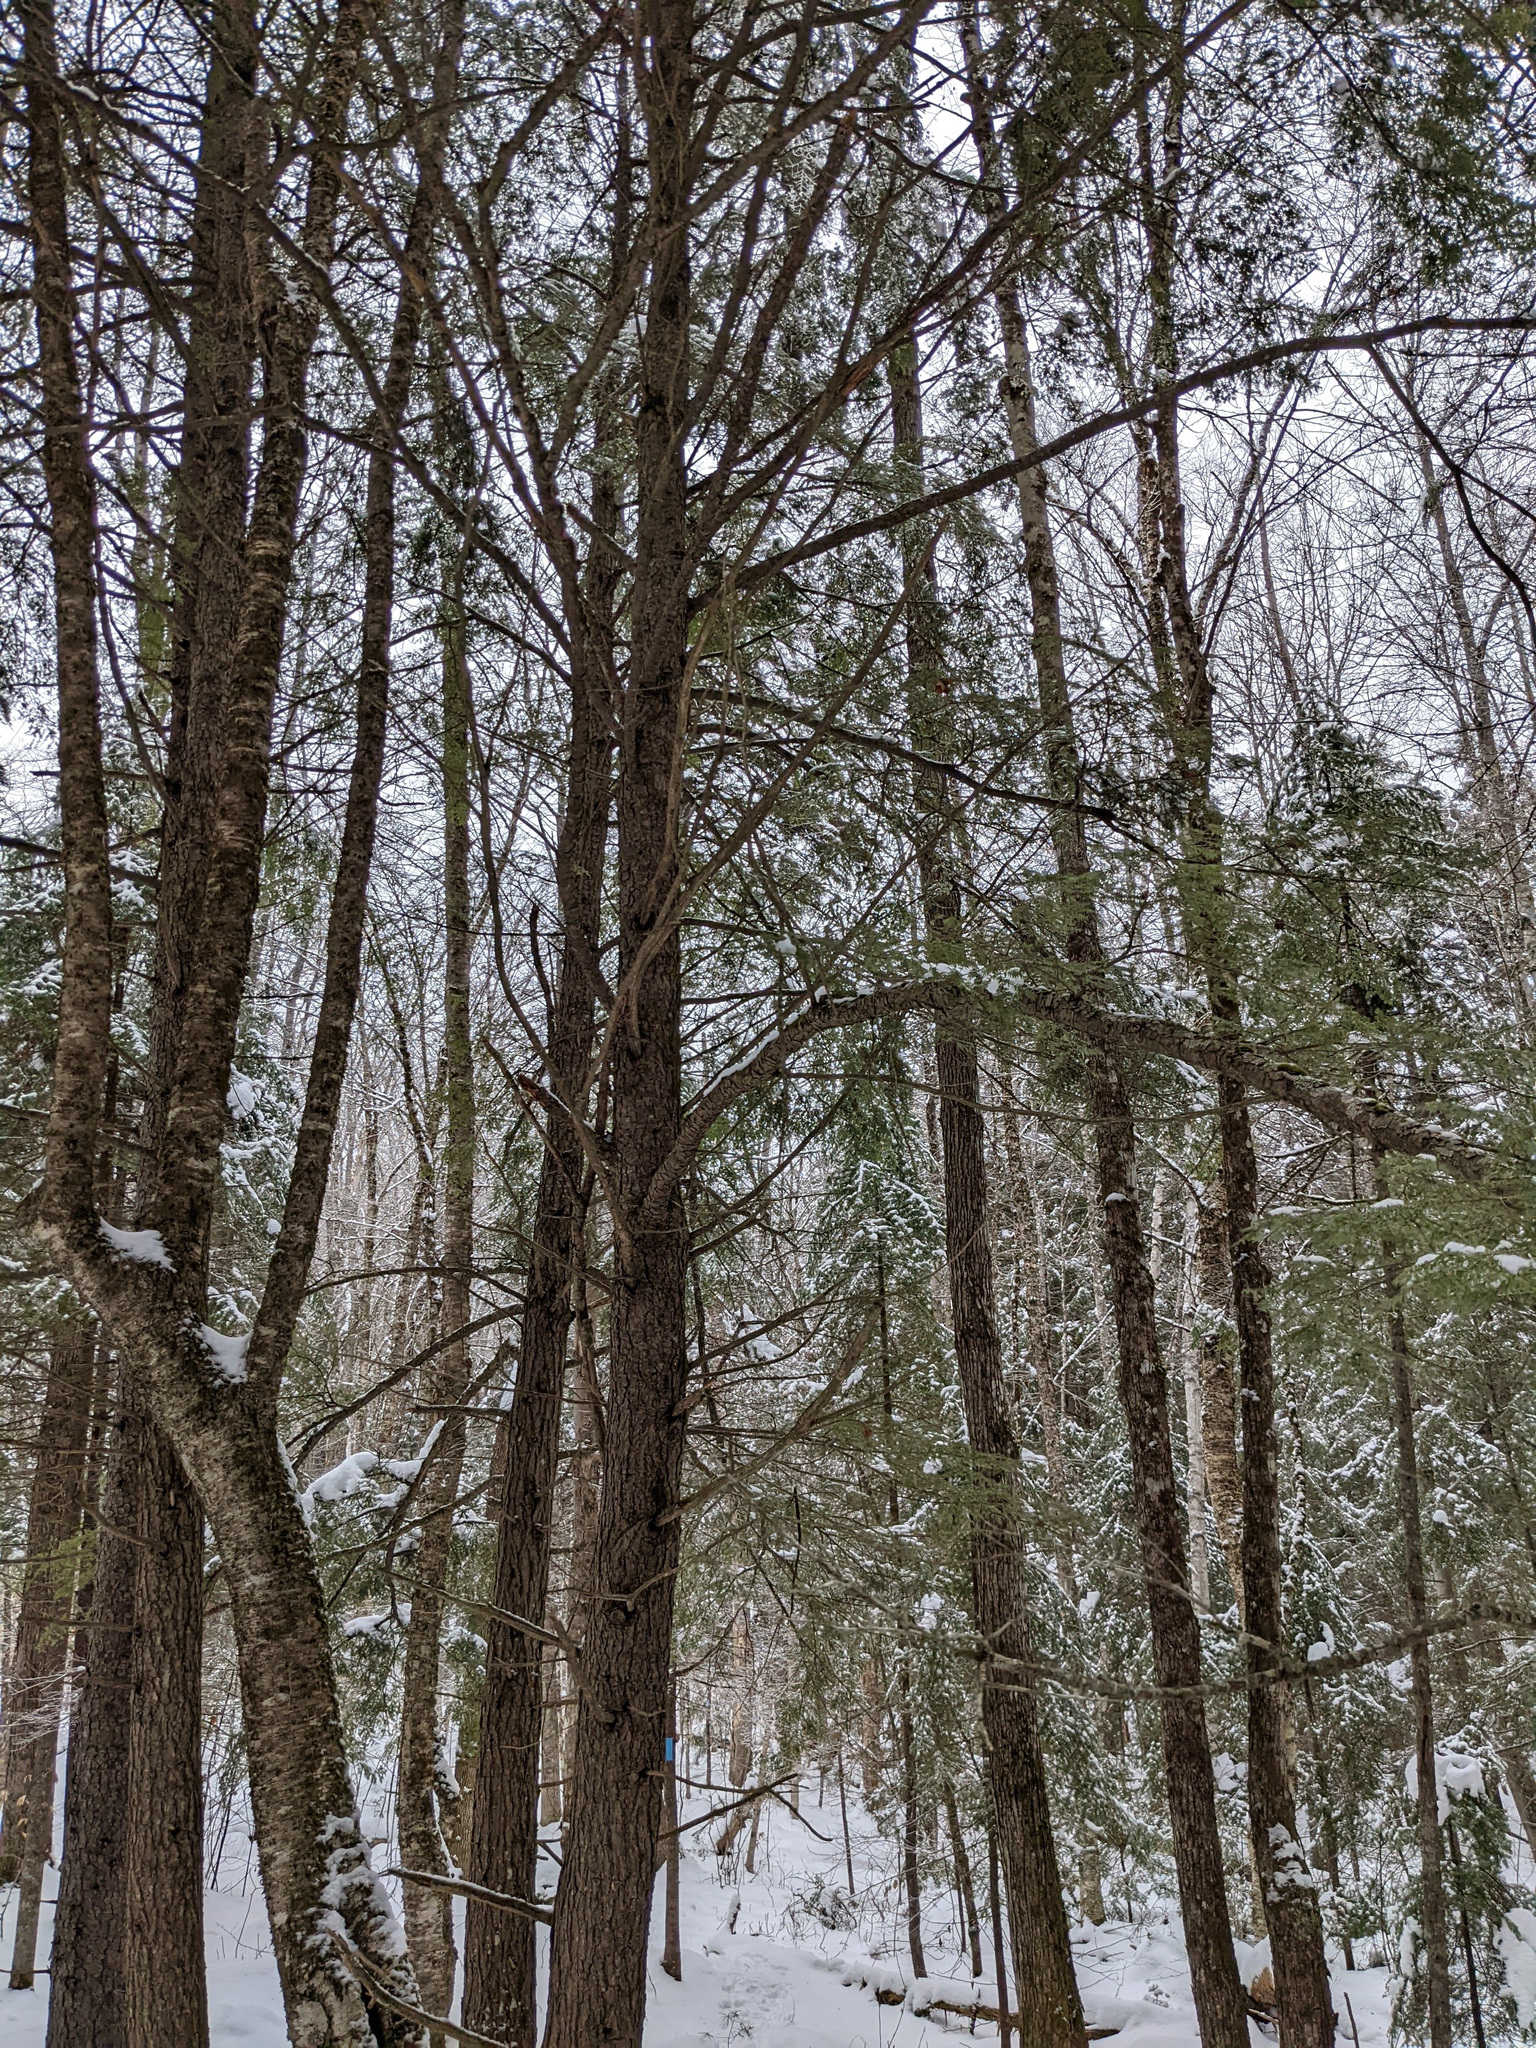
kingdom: Plantae
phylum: Tracheophyta
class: Pinopsida
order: Pinales
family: Pinaceae
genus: Tsuga
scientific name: Tsuga canadensis
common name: Eastern hemlock
